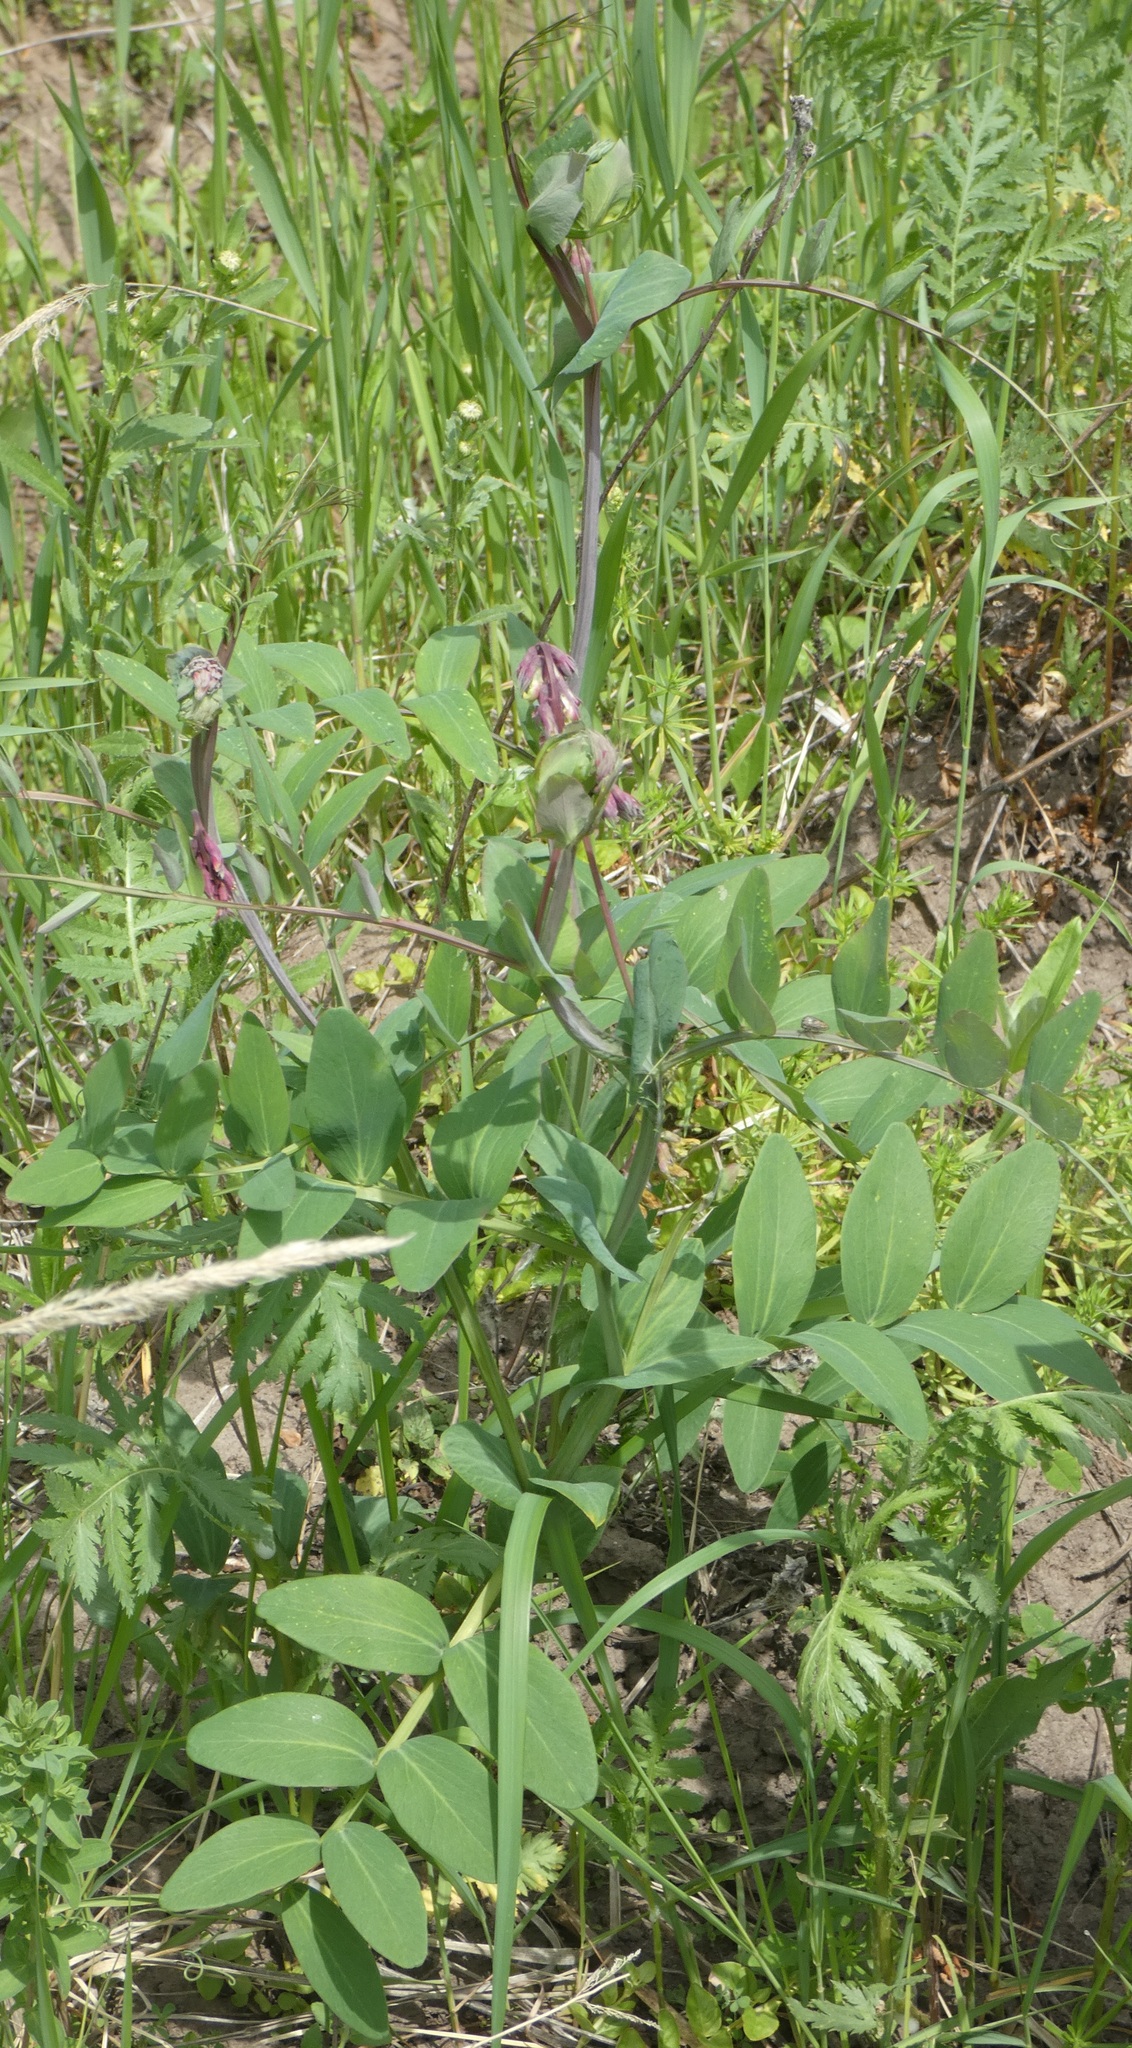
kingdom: Plantae
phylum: Tracheophyta
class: Magnoliopsida
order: Fabales
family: Fabaceae
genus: Lathyrus
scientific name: Lathyrus pisiformis
